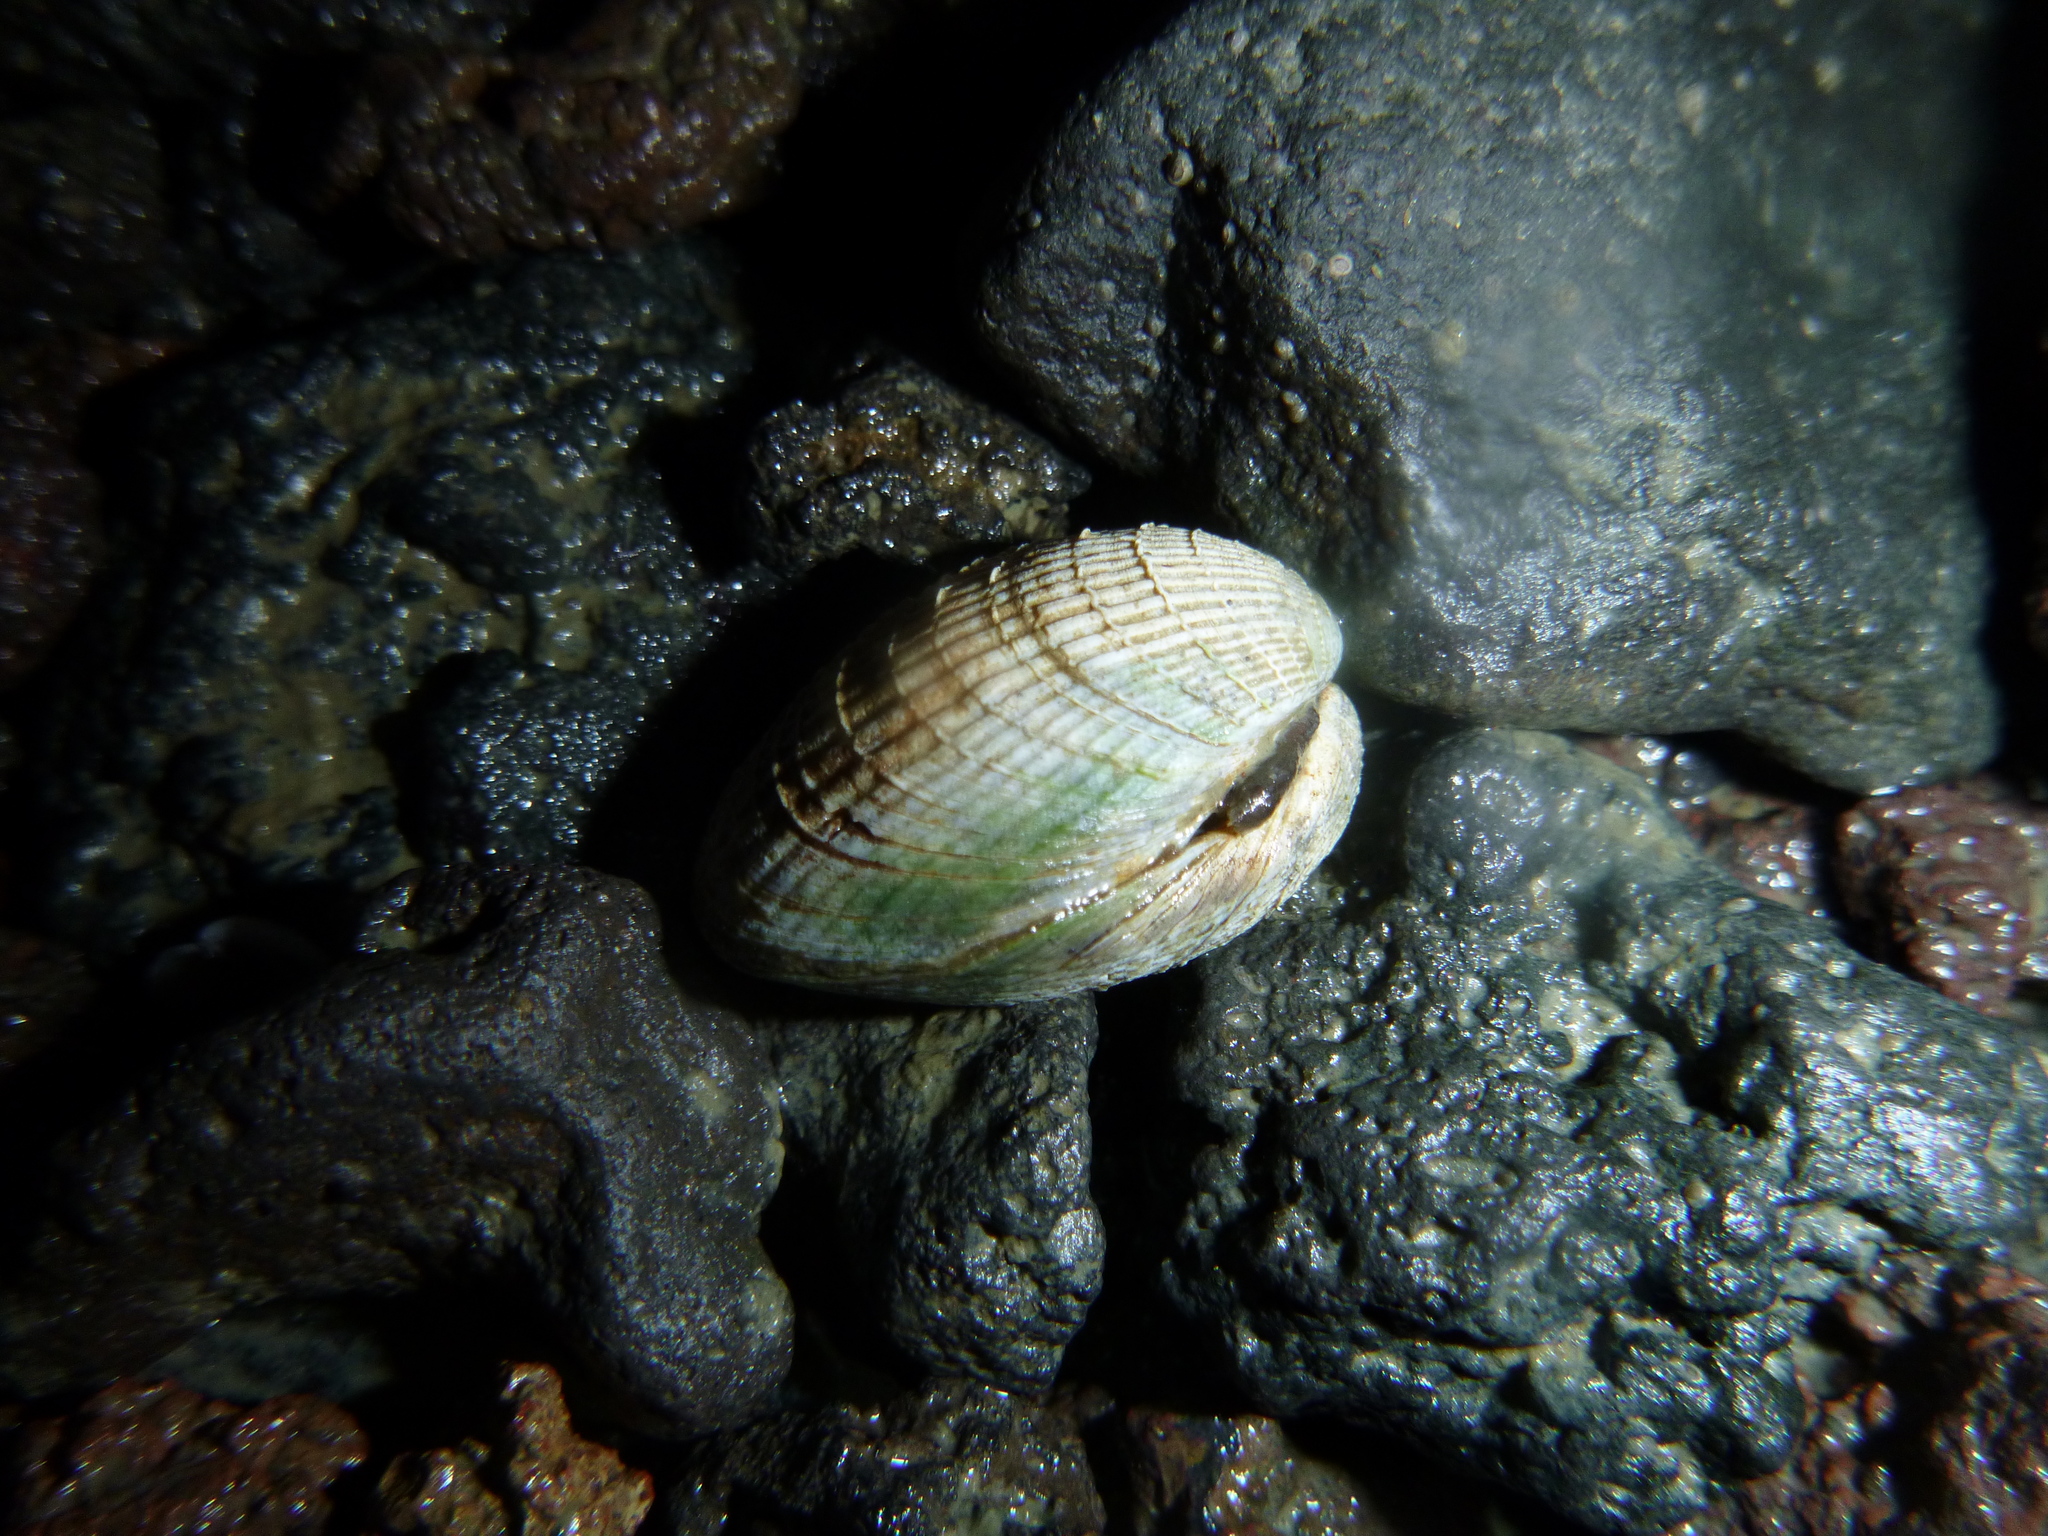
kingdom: Animalia
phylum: Mollusca
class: Bivalvia
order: Venerida
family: Veneridae
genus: Austrovenus
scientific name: Austrovenus stutchburyi
